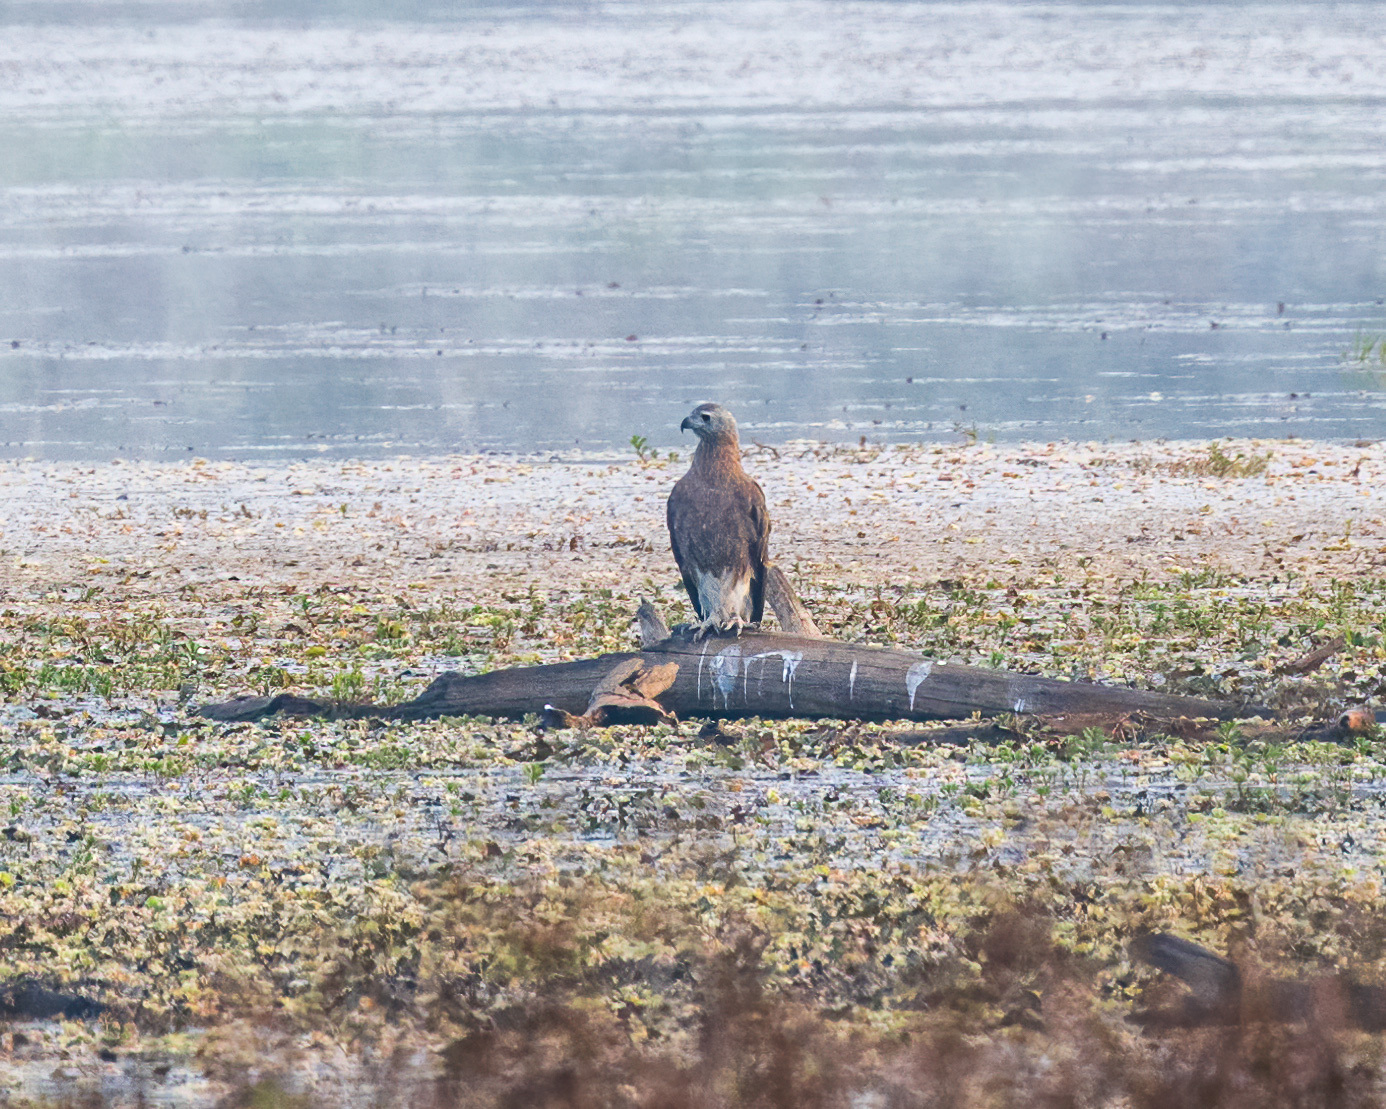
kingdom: Animalia
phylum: Chordata
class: Aves
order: Accipitriformes
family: Accipitridae
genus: Icthyophaga
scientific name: Icthyophaga ichthyaetus
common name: Grey-headed fish eagle
